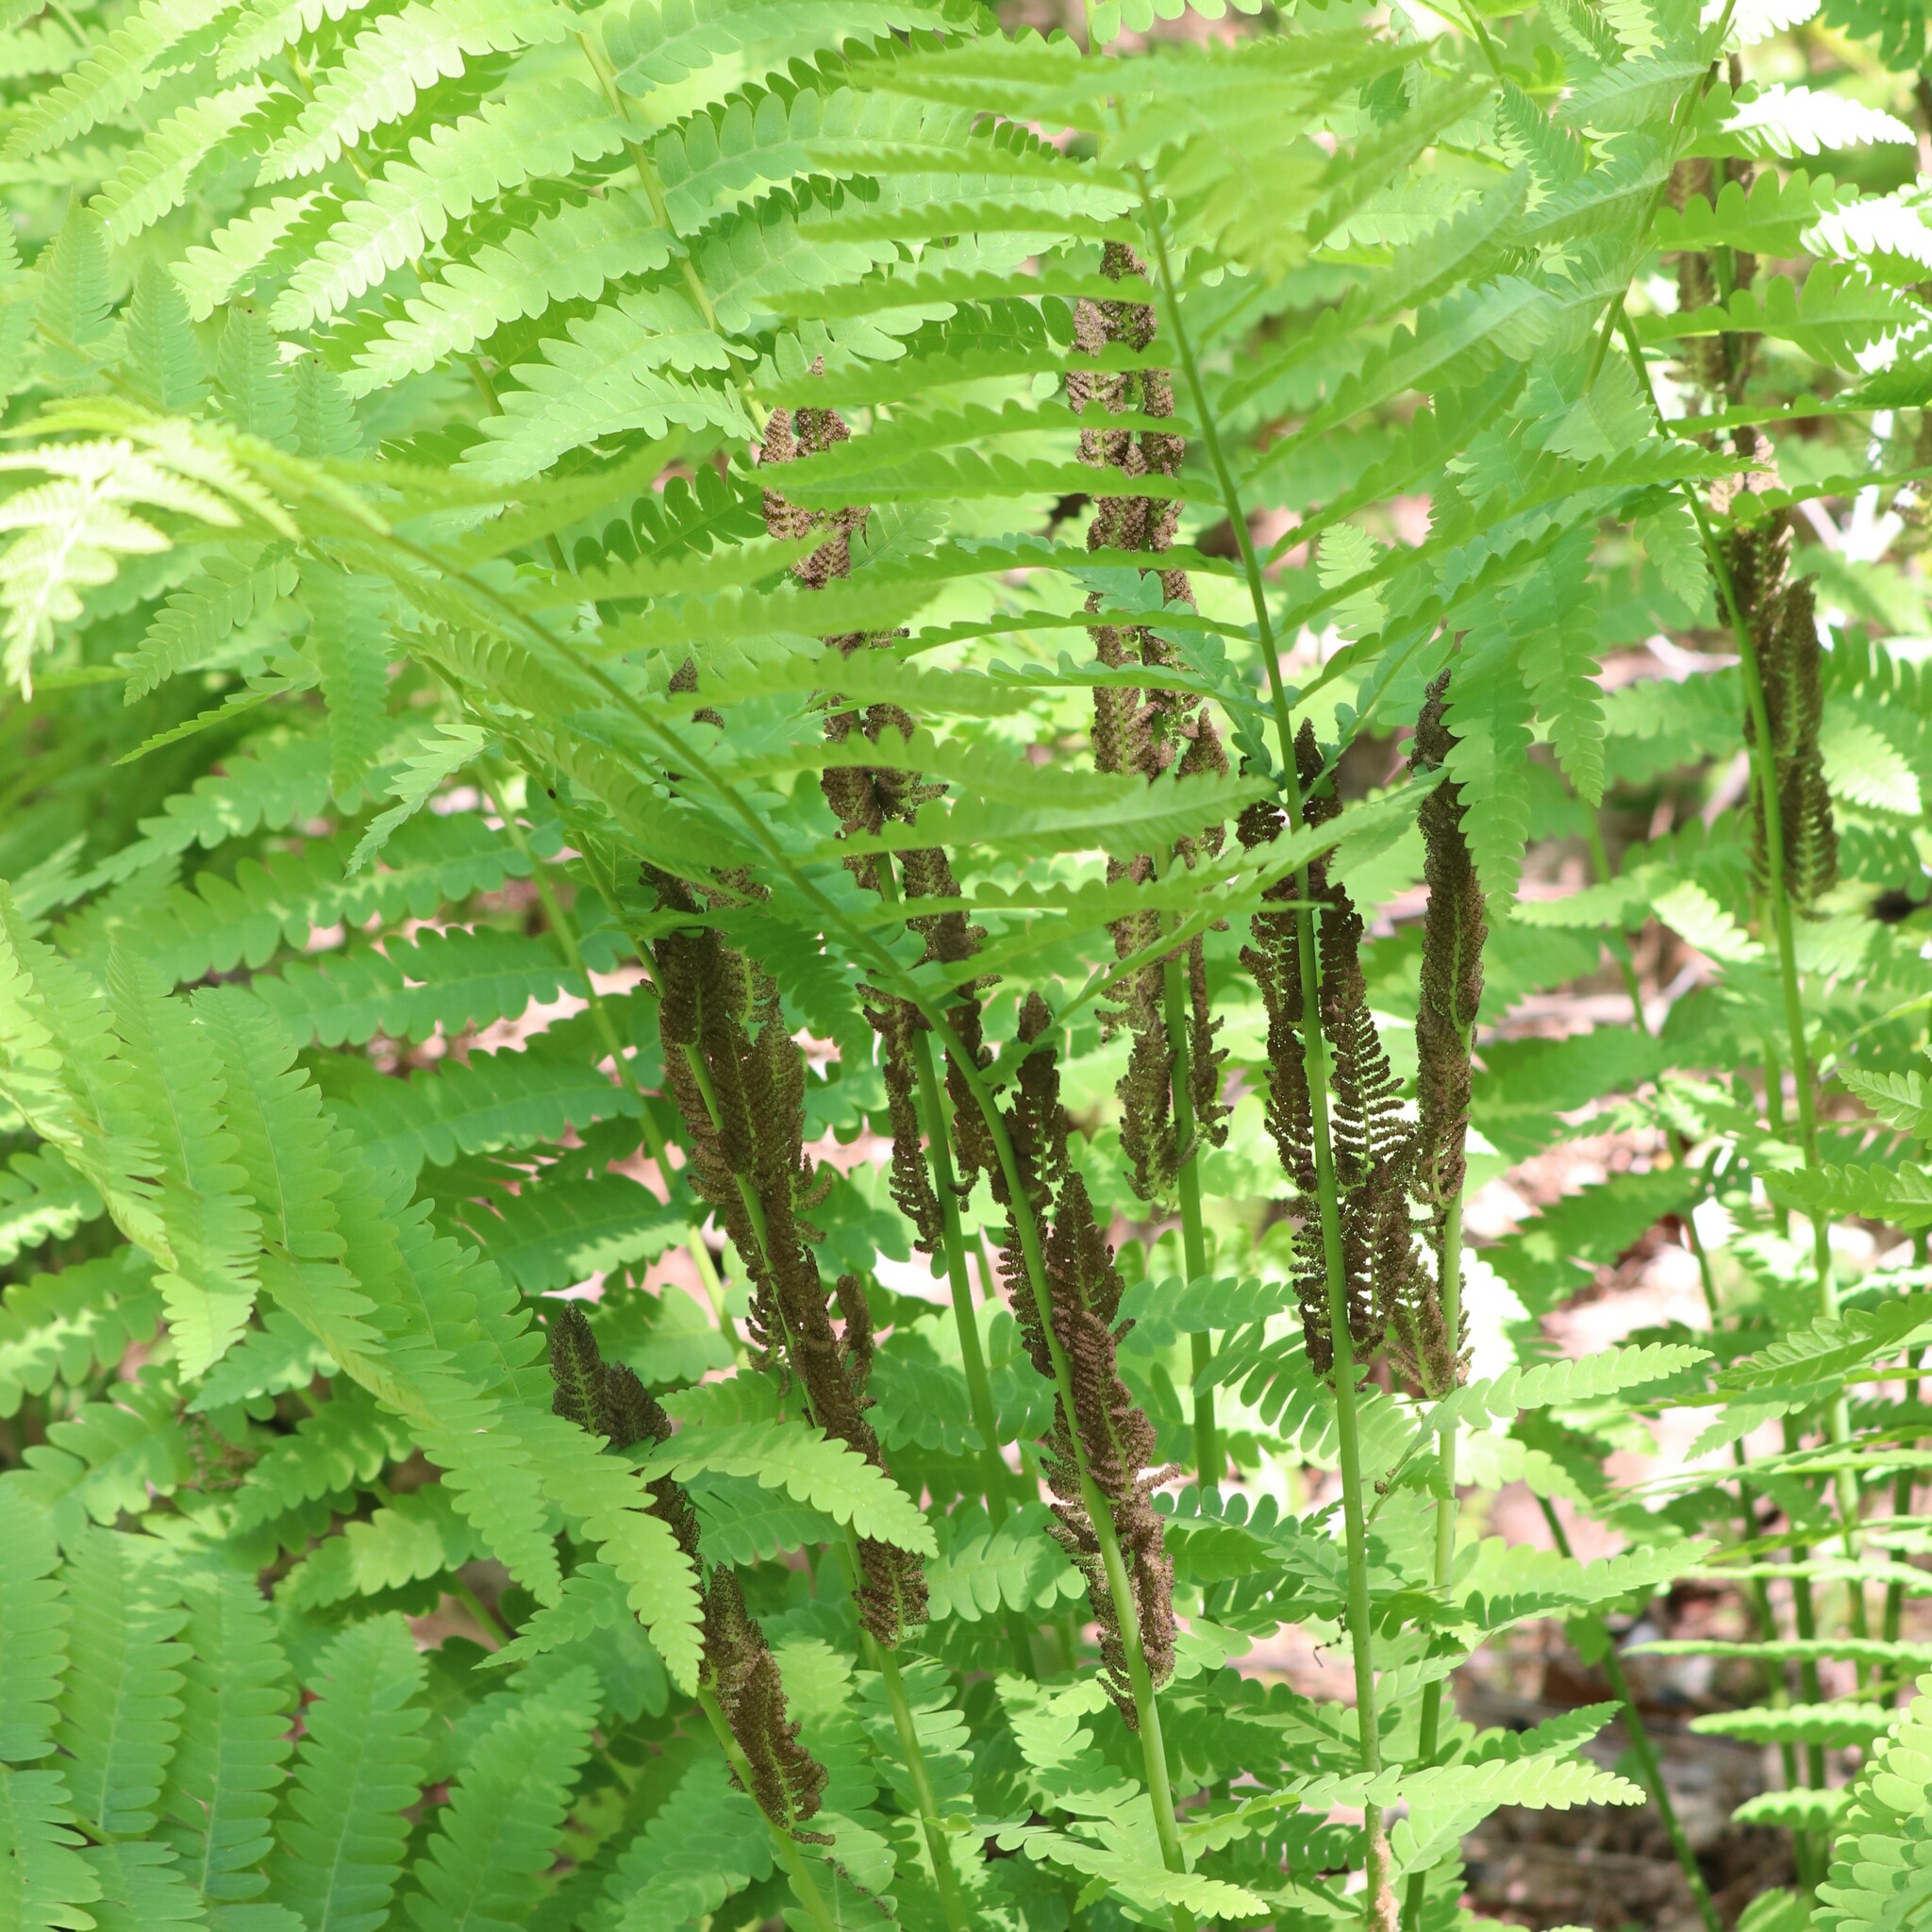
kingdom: Plantae
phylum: Tracheophyta
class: Polypodiopsida
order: Osmundales
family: Osmundaceae
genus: Claytosmunda
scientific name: Claytosmunda claytoniana
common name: Clayton's fern
